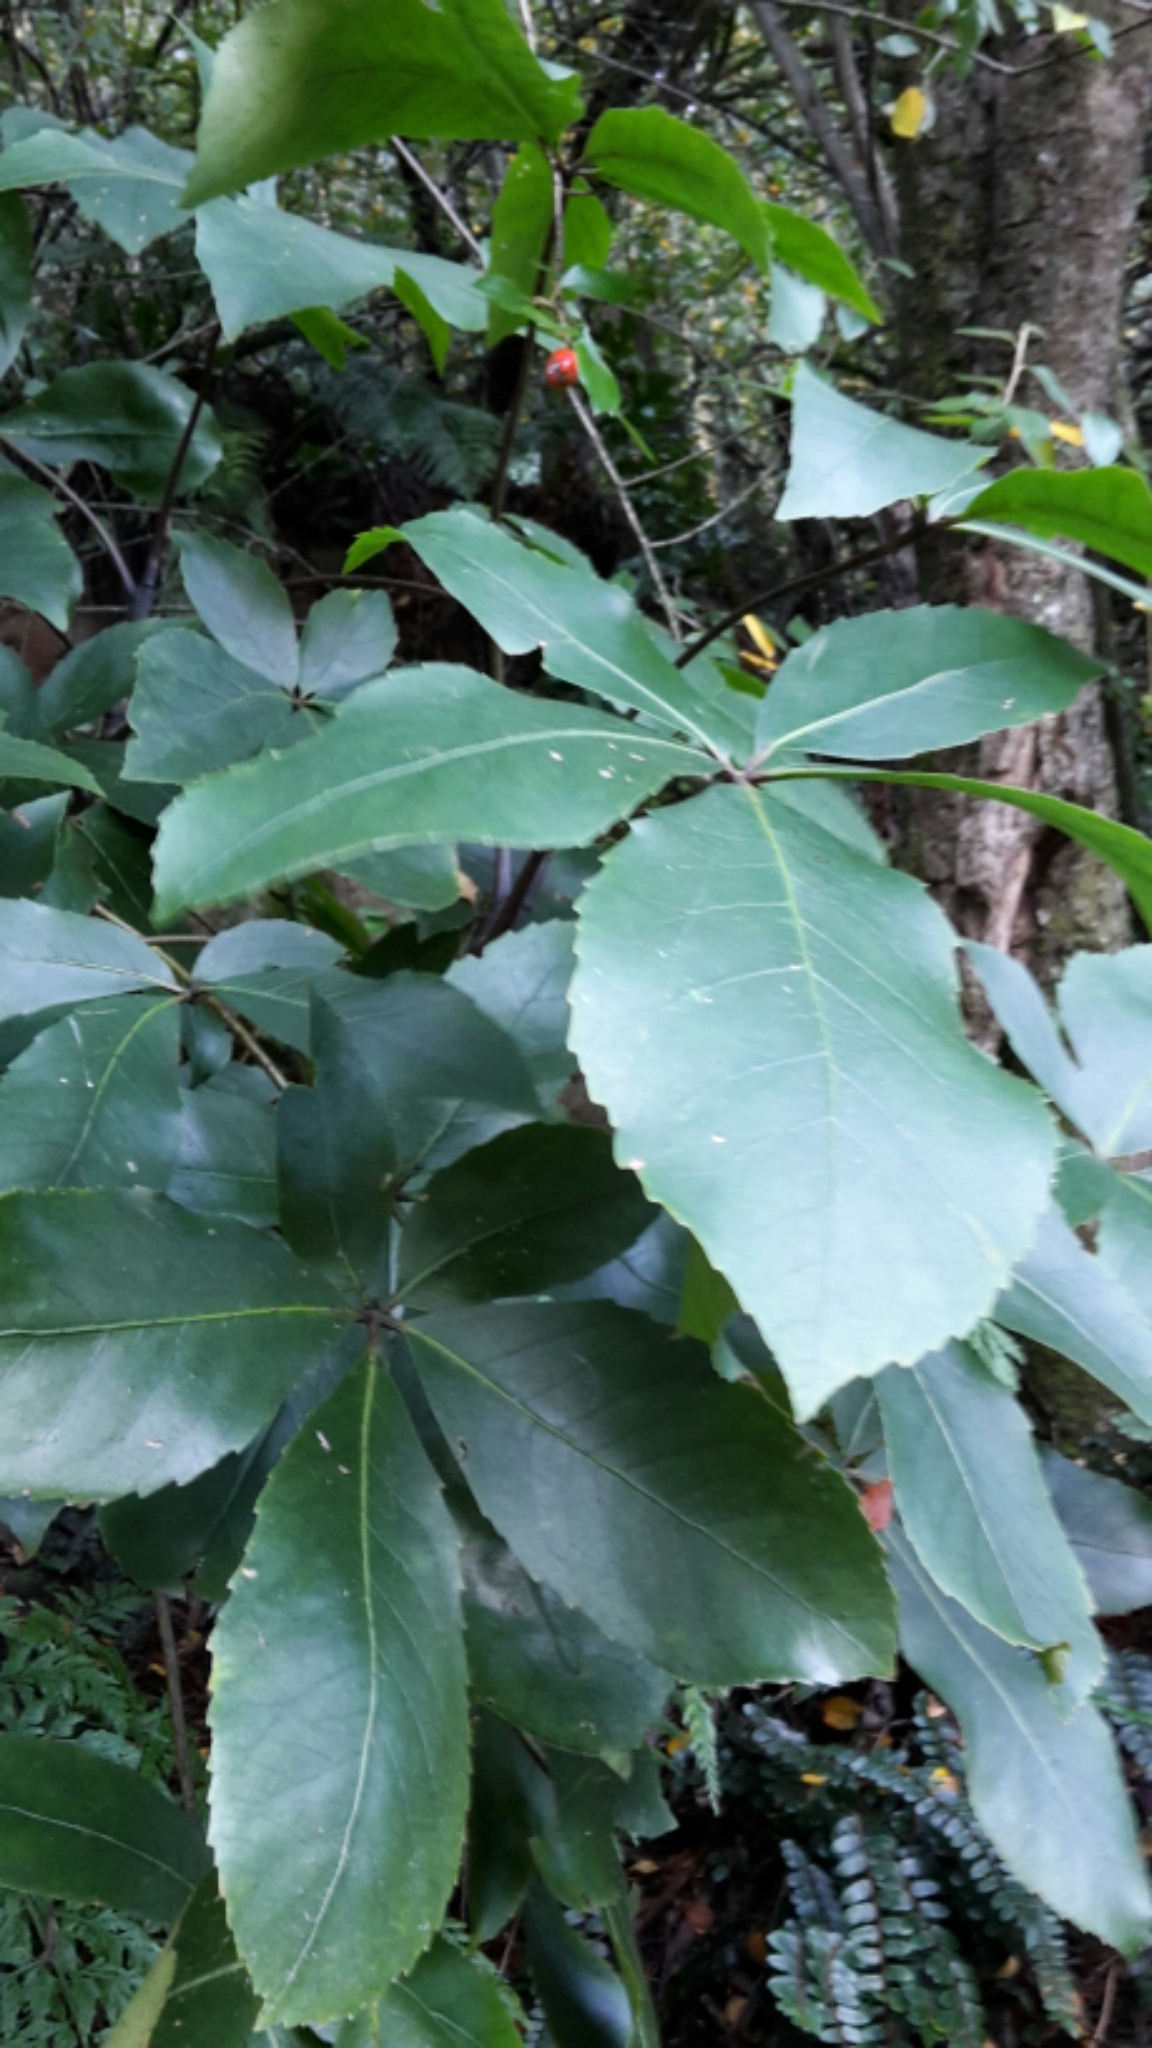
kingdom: Plantae
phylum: Tracheophyta
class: Magnoliopsida
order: Apiales
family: Araliaceae
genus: Neopanax
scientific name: Neopanax colensoi
